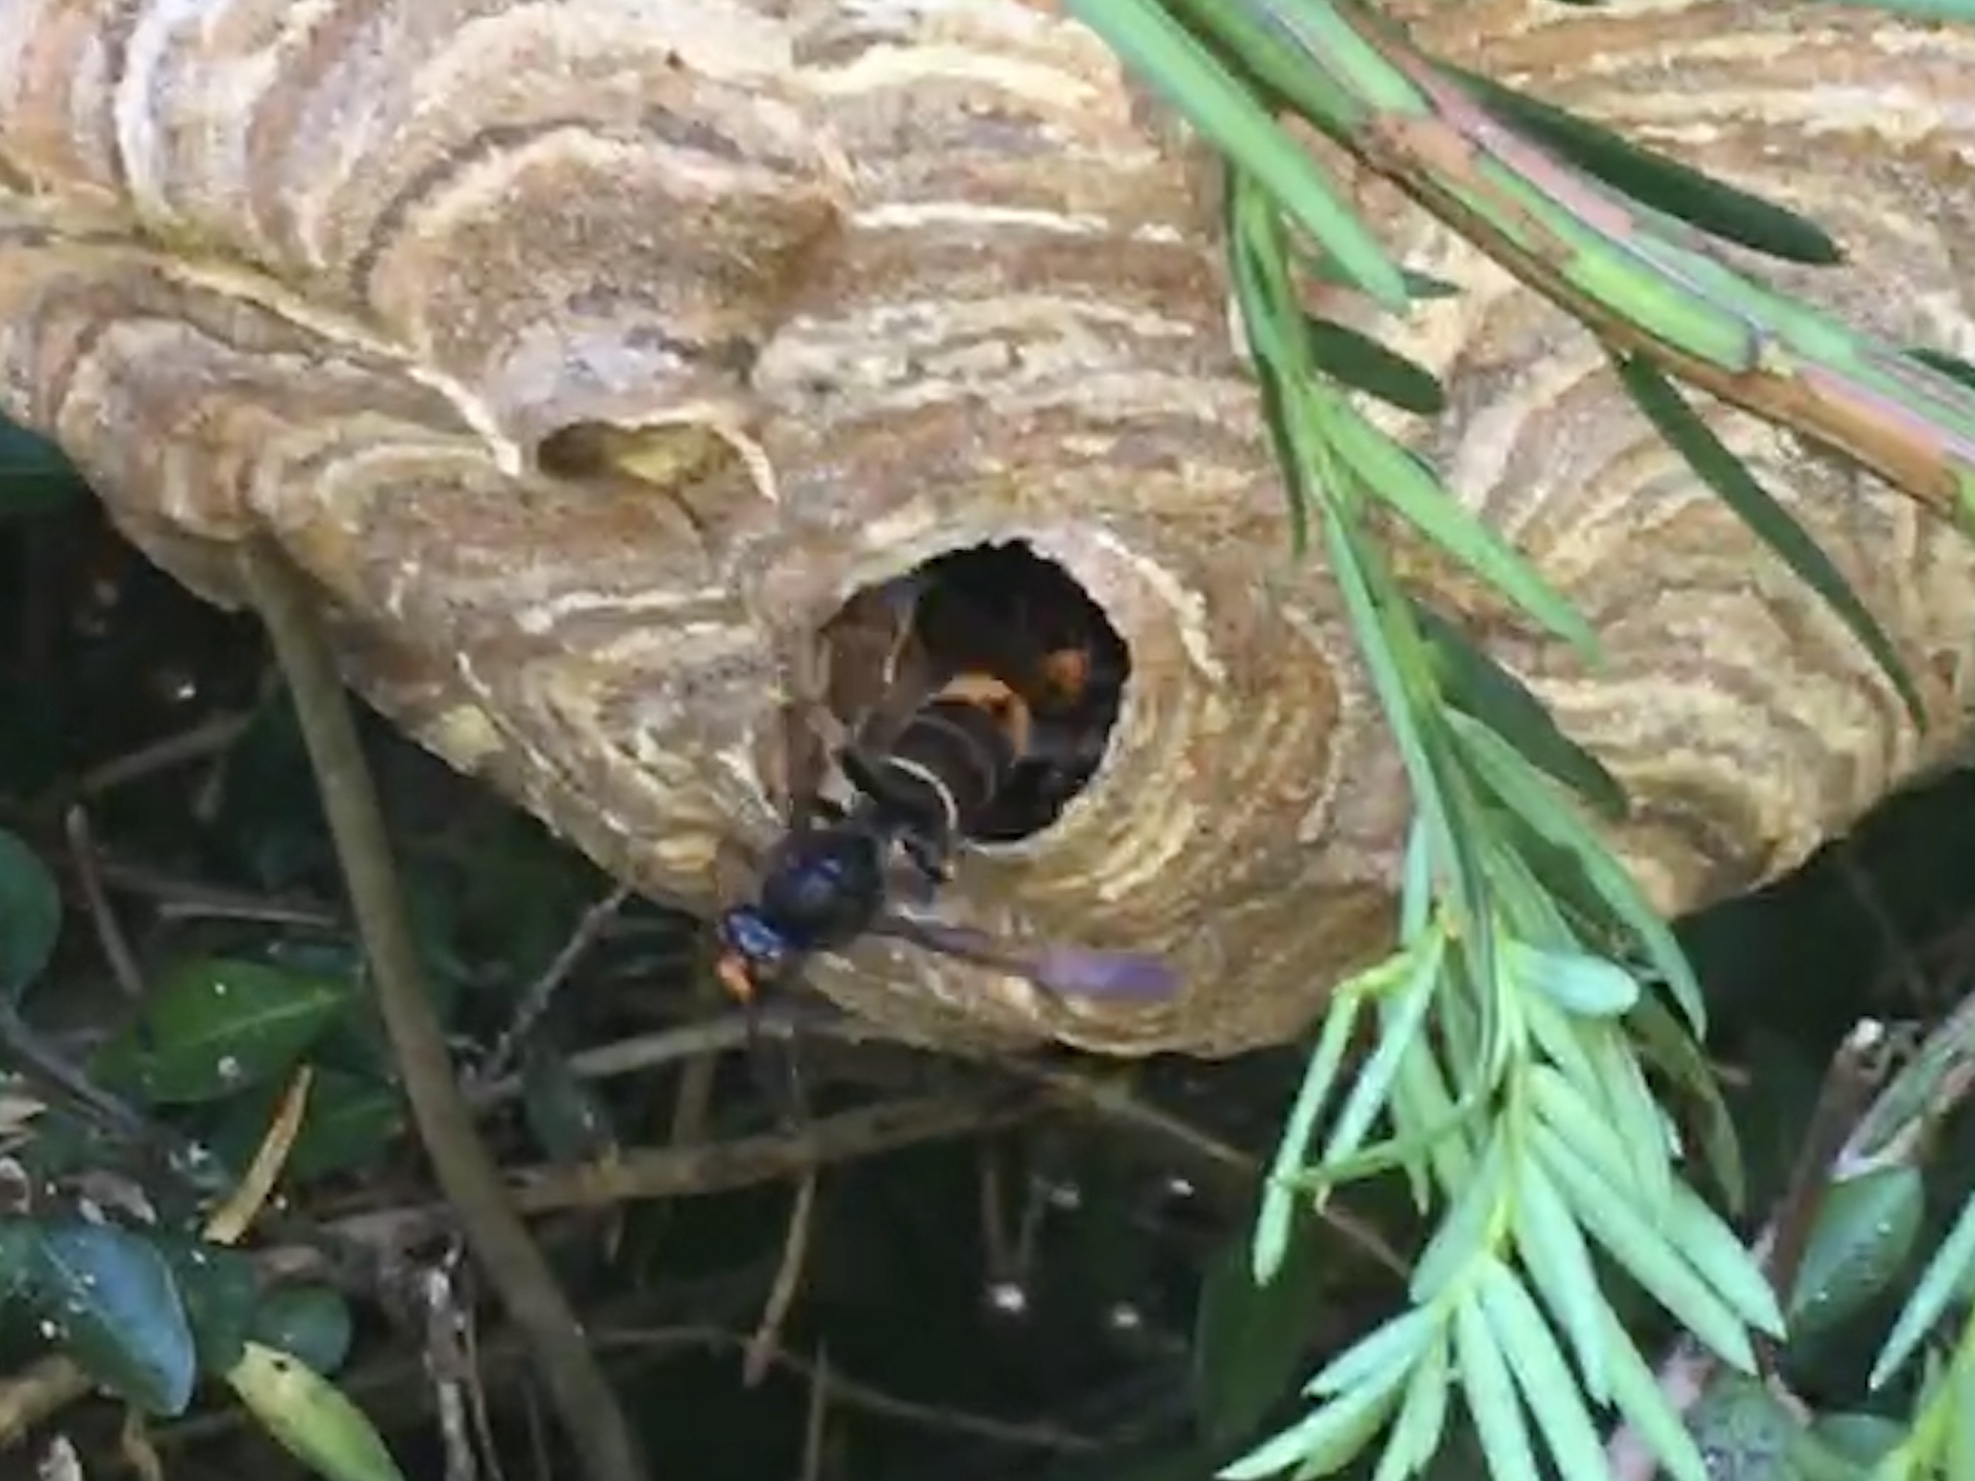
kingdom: Animalia
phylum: Arthropoda
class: Insecta
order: Hymenoptera
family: Vespidae
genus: Vespa
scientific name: Vespa velutina
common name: Asian hornet
